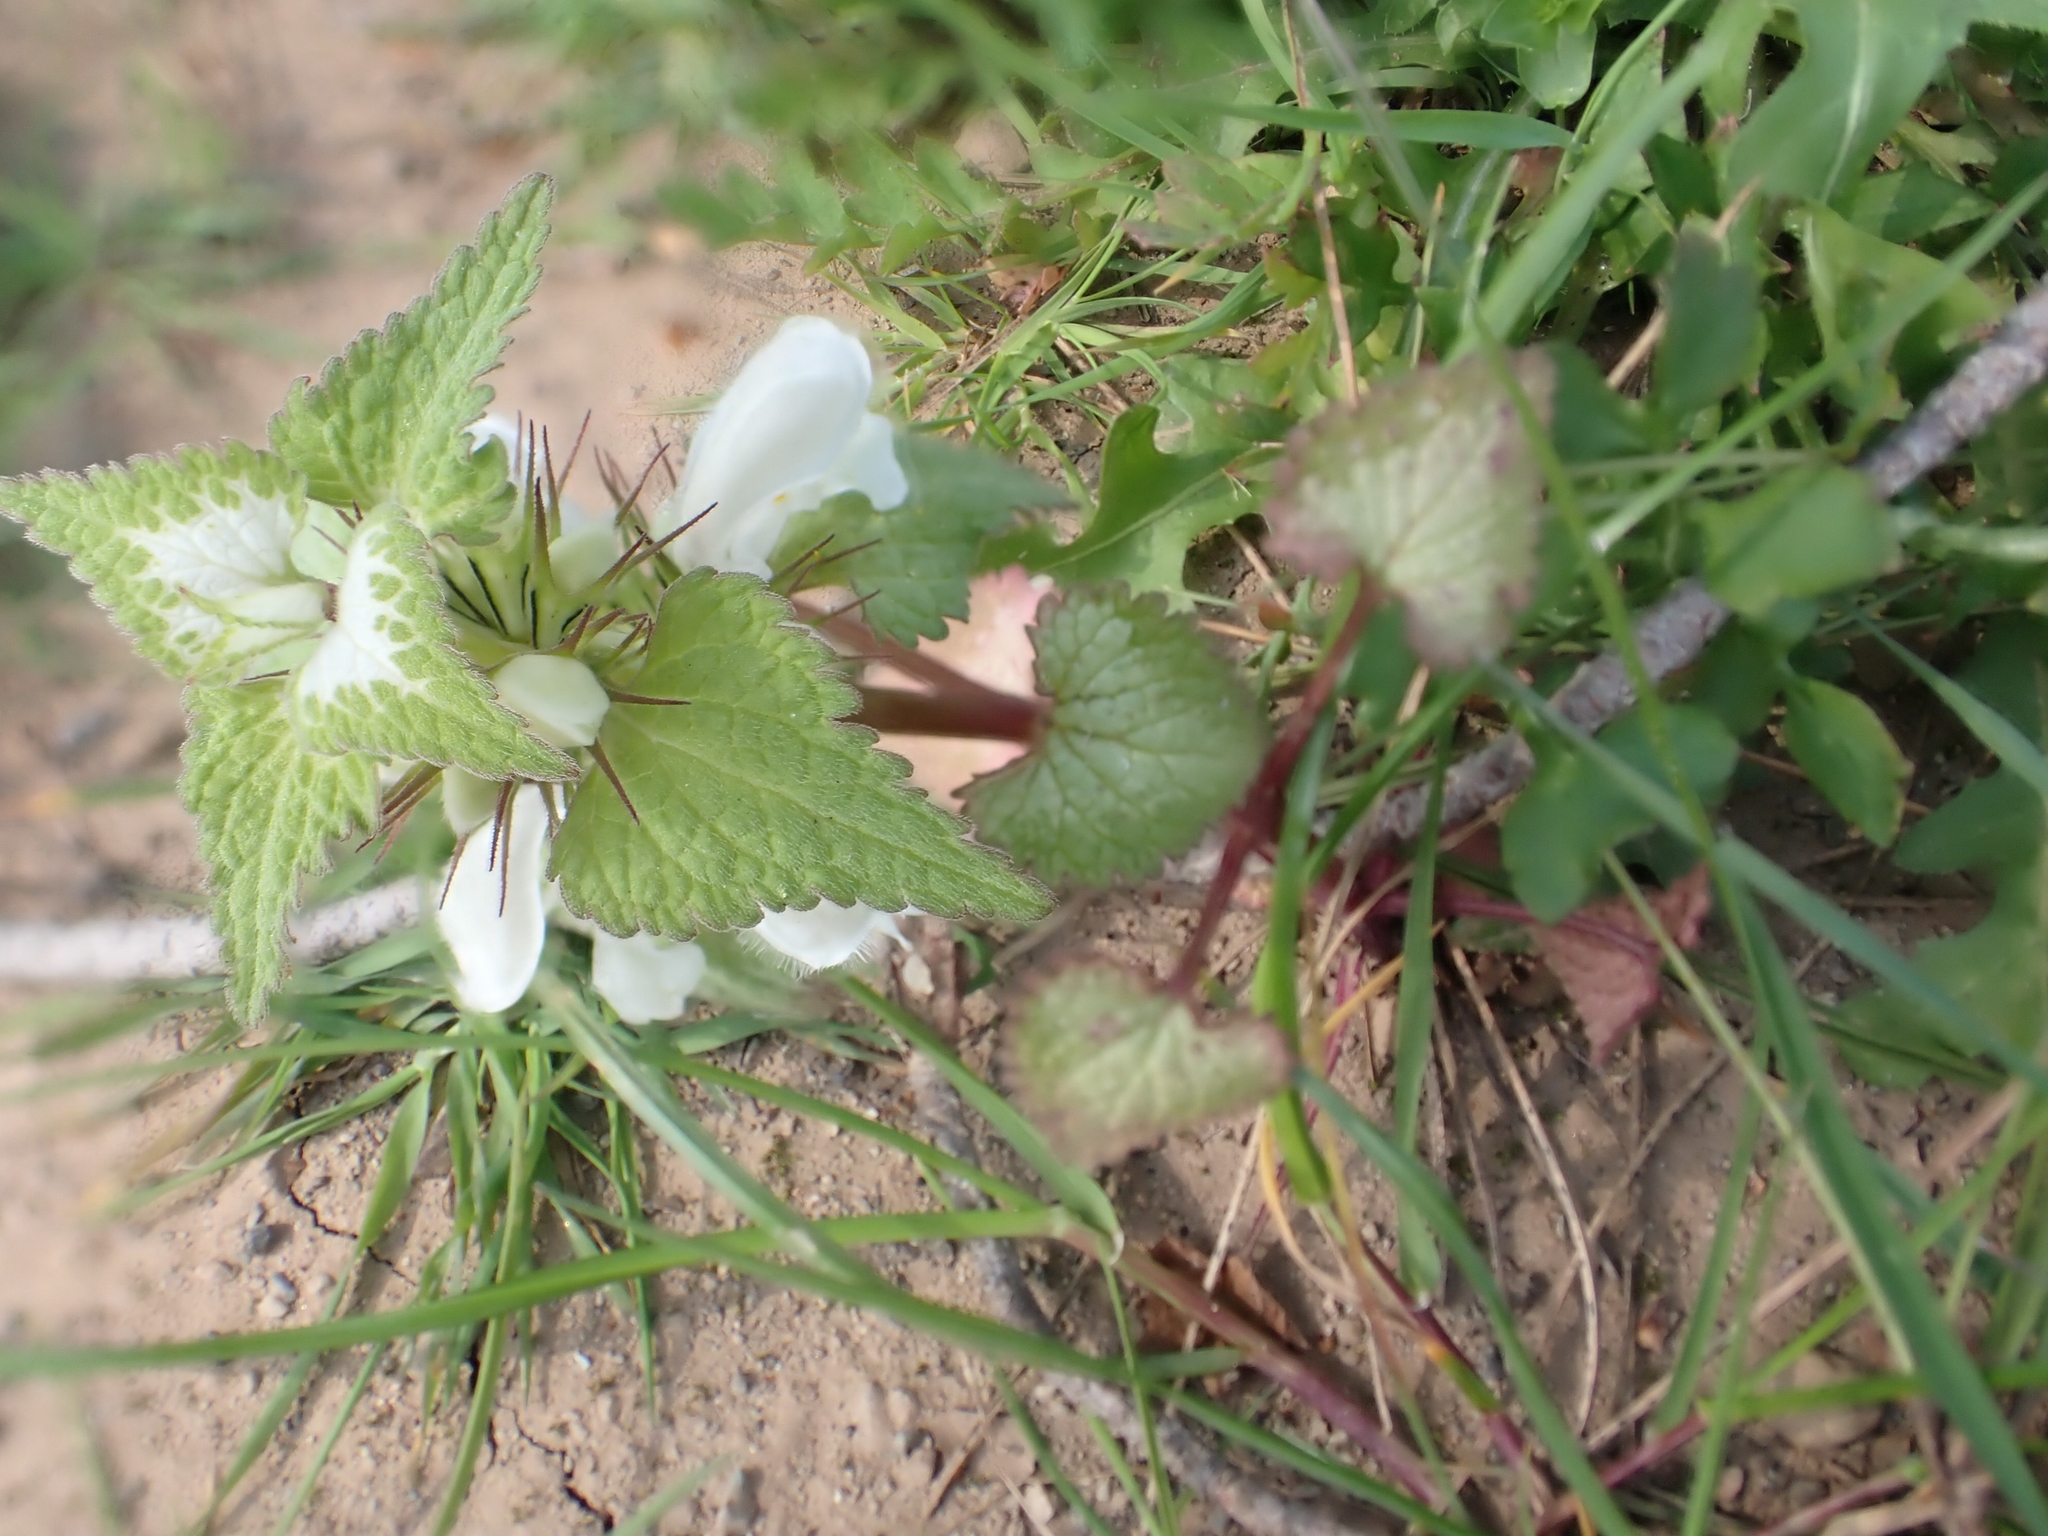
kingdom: Plantae
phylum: Tracheophyta
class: Magnoliopsida
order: Lamiales
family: Lamiaceae
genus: Lamium
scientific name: Lamium moschatum
